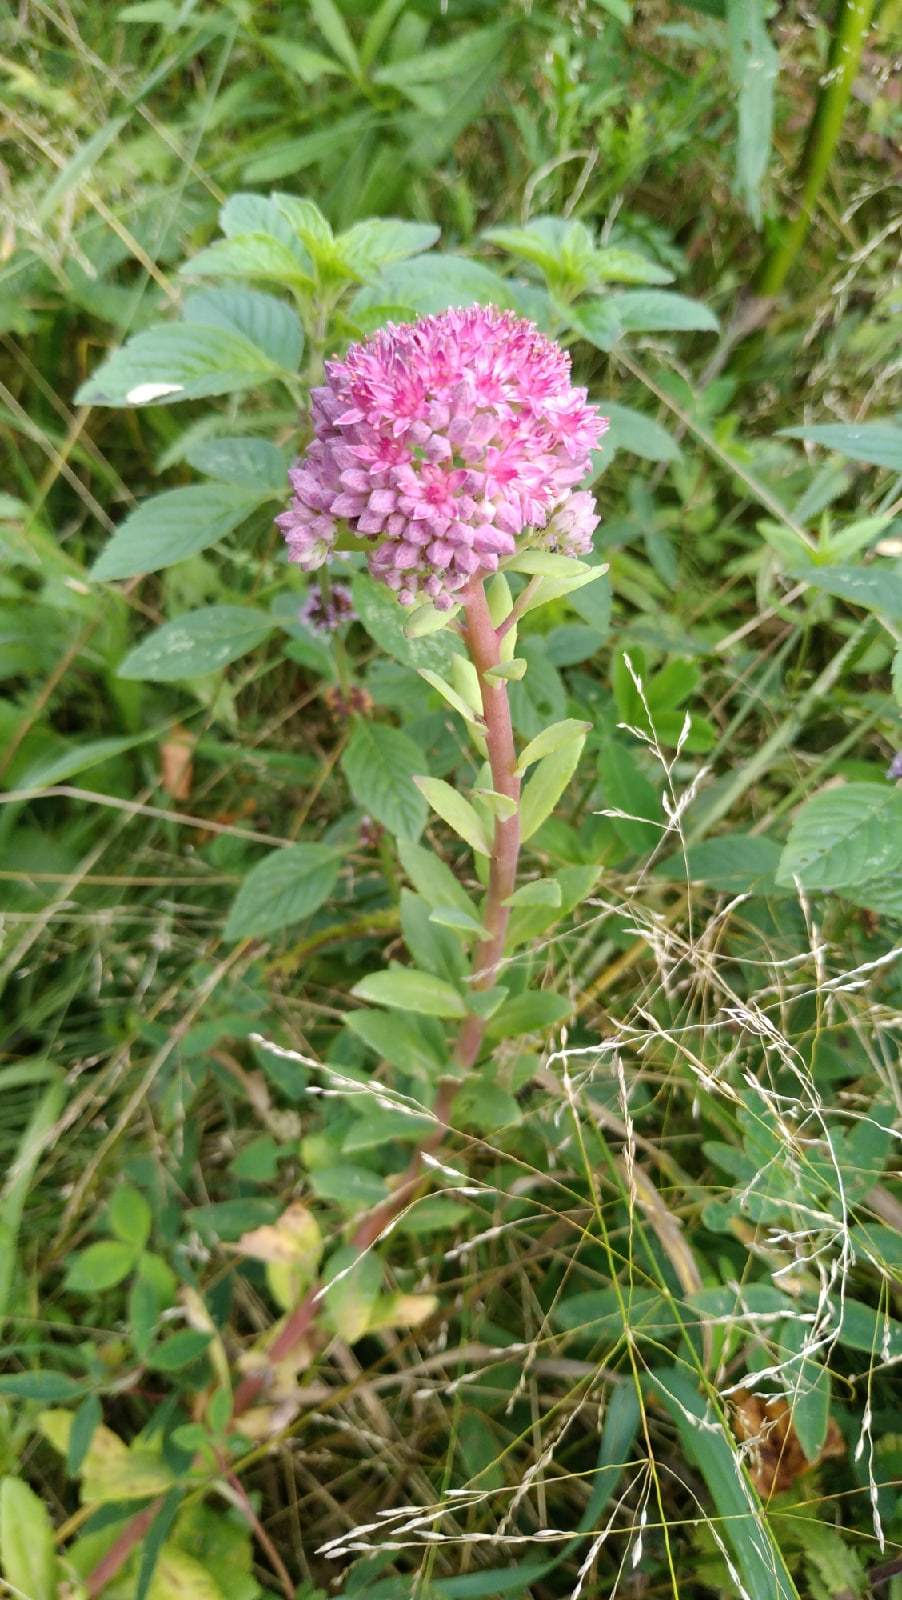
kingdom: Plantae
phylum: Tracheophyta
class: Magnoliopsida
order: Saxifragales
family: Crassulaceae
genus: Hylotelephium
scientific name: Hylotelephium telephium
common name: Live-forever
